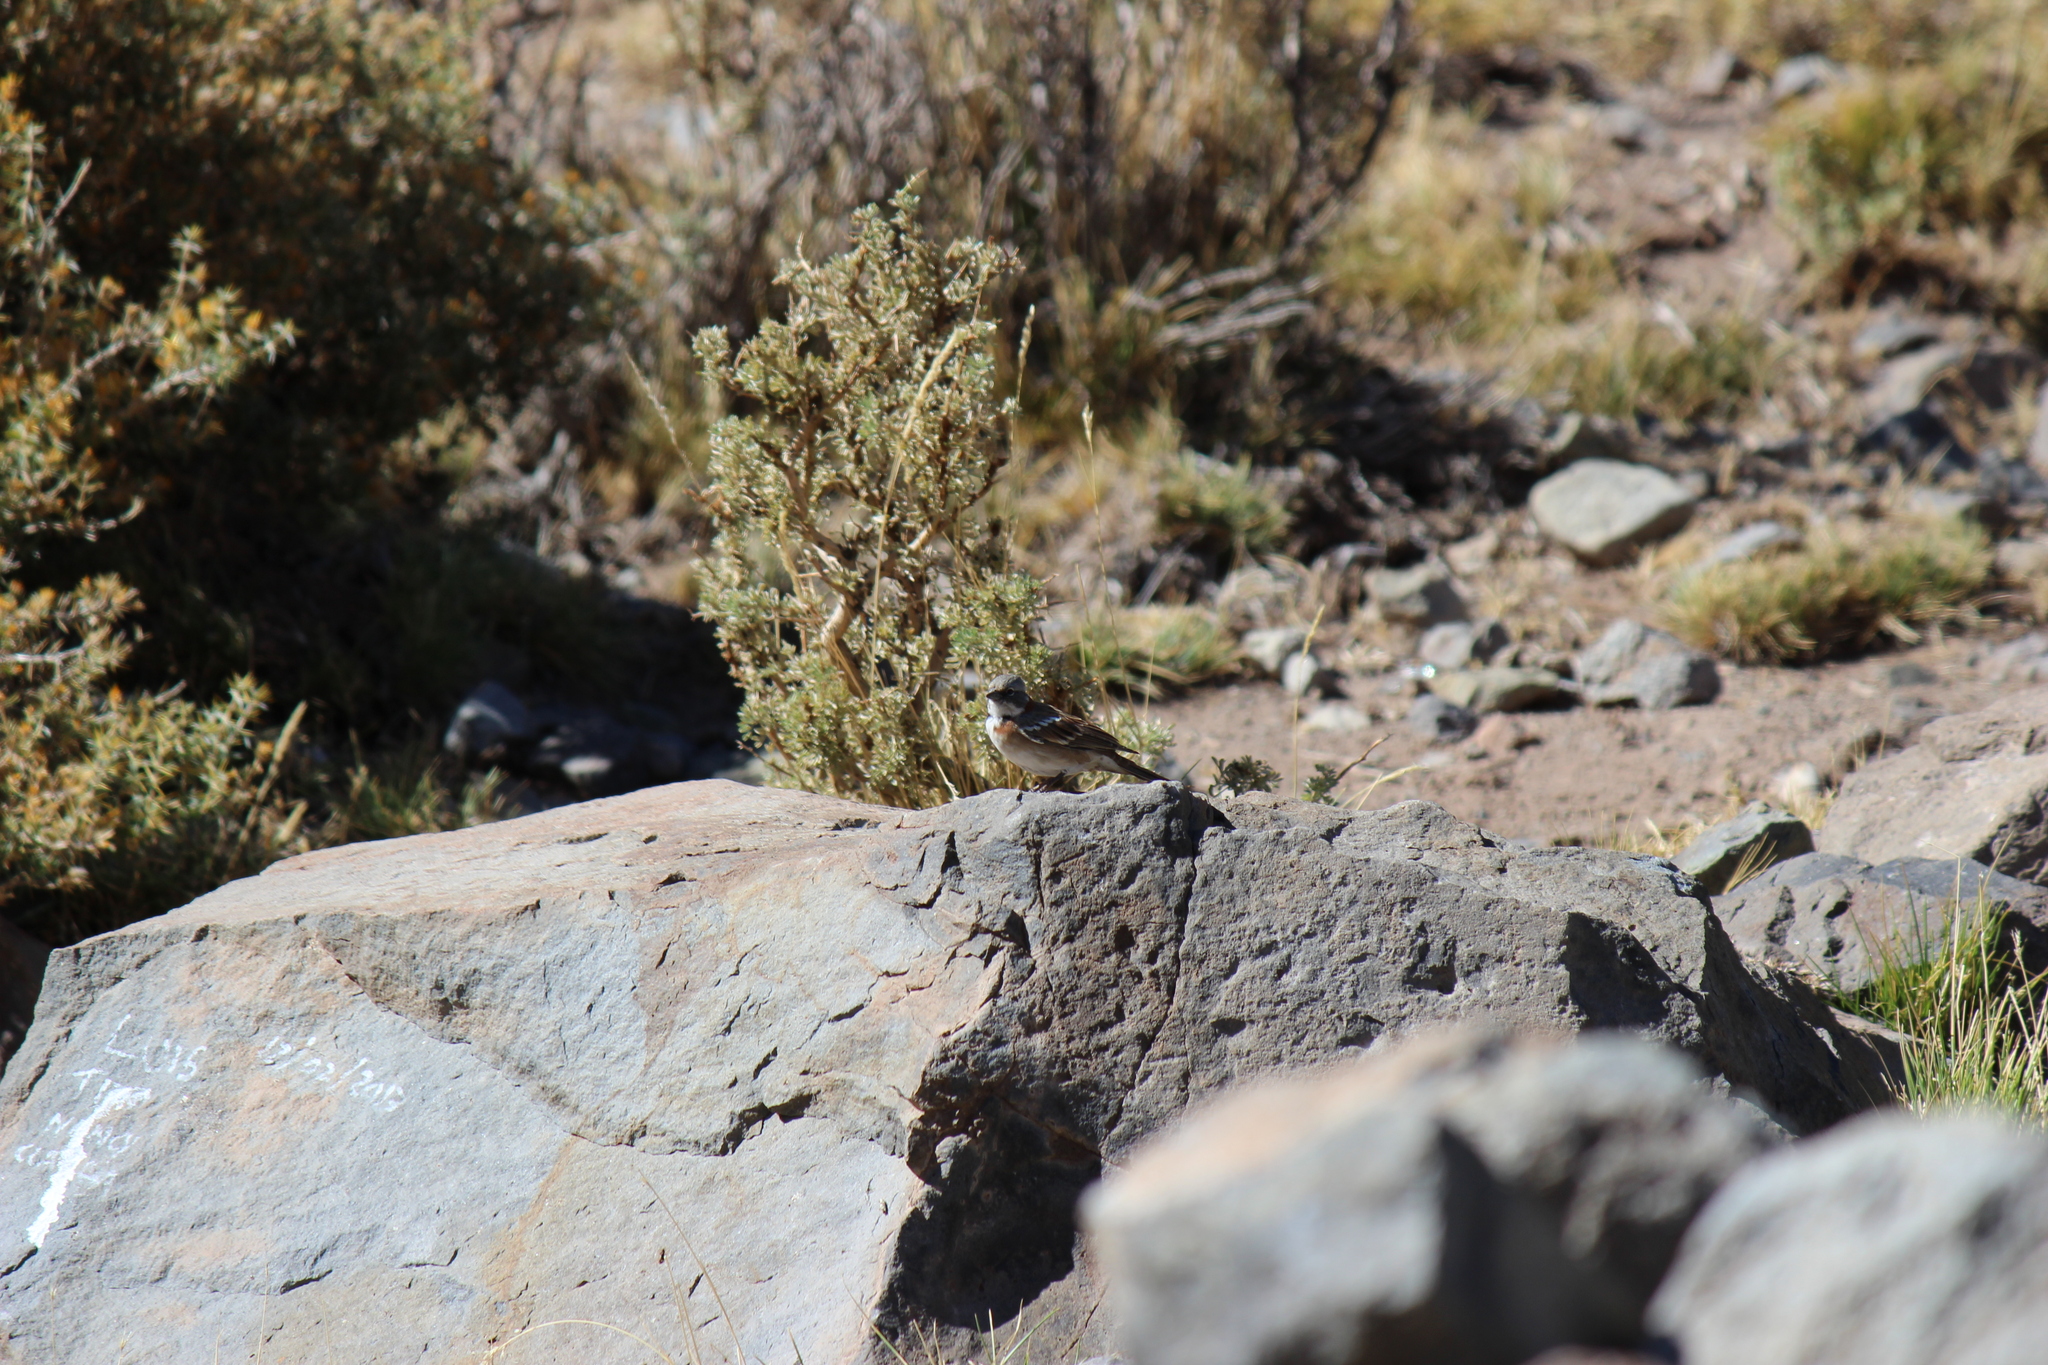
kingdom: Animalia
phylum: Chordata
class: Aves
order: Passeriformes
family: Passerellidae
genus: Zonotrichia
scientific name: Zonotrichia capensis
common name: Rufous-collared sparrow
